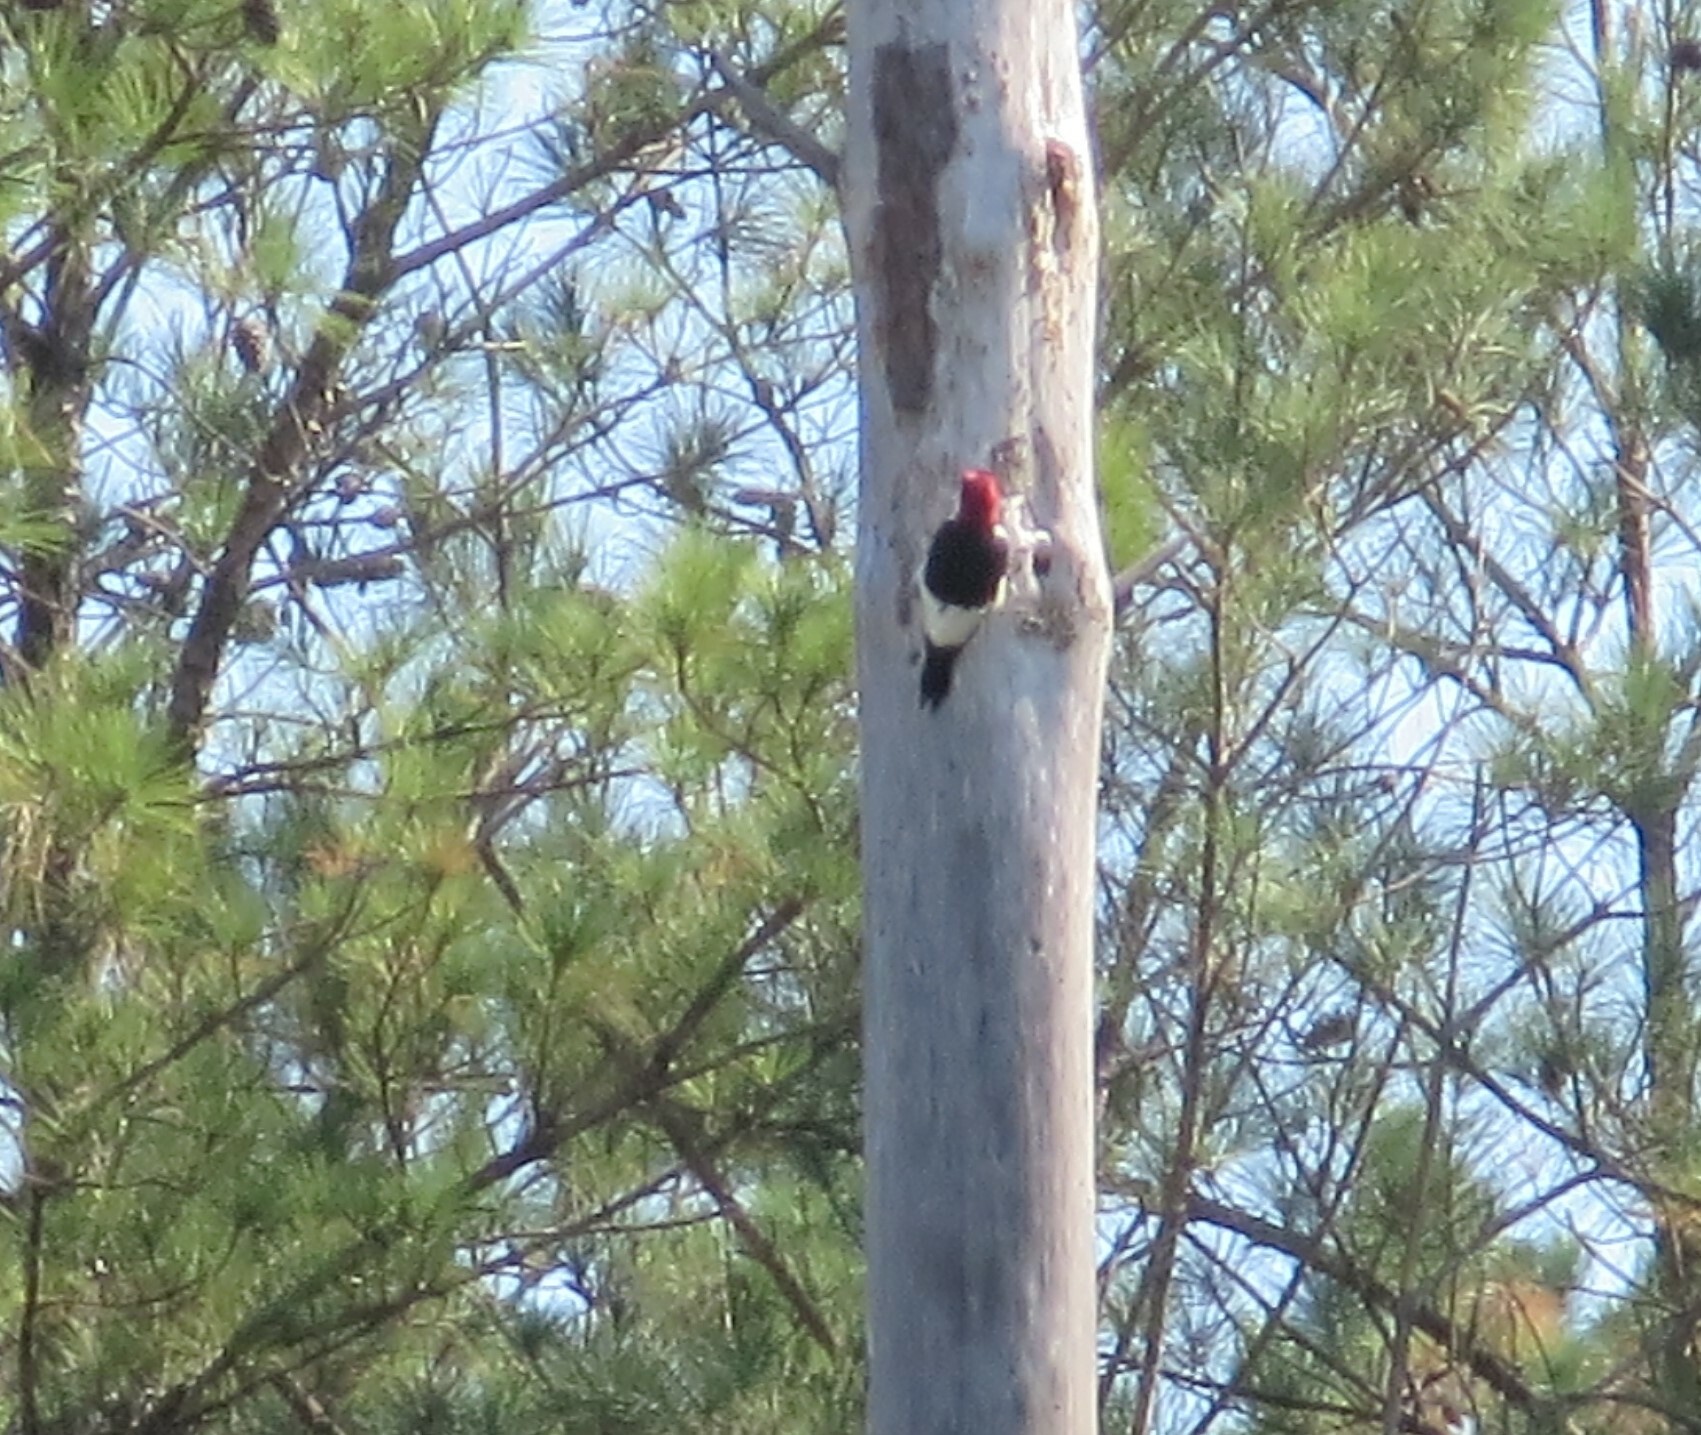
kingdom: Animalia
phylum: Chordata
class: Aves
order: Piciformes
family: Picidae
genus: Melanerpes
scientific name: Melanerpes erythrocephalus
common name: Red-headed woodpecker
